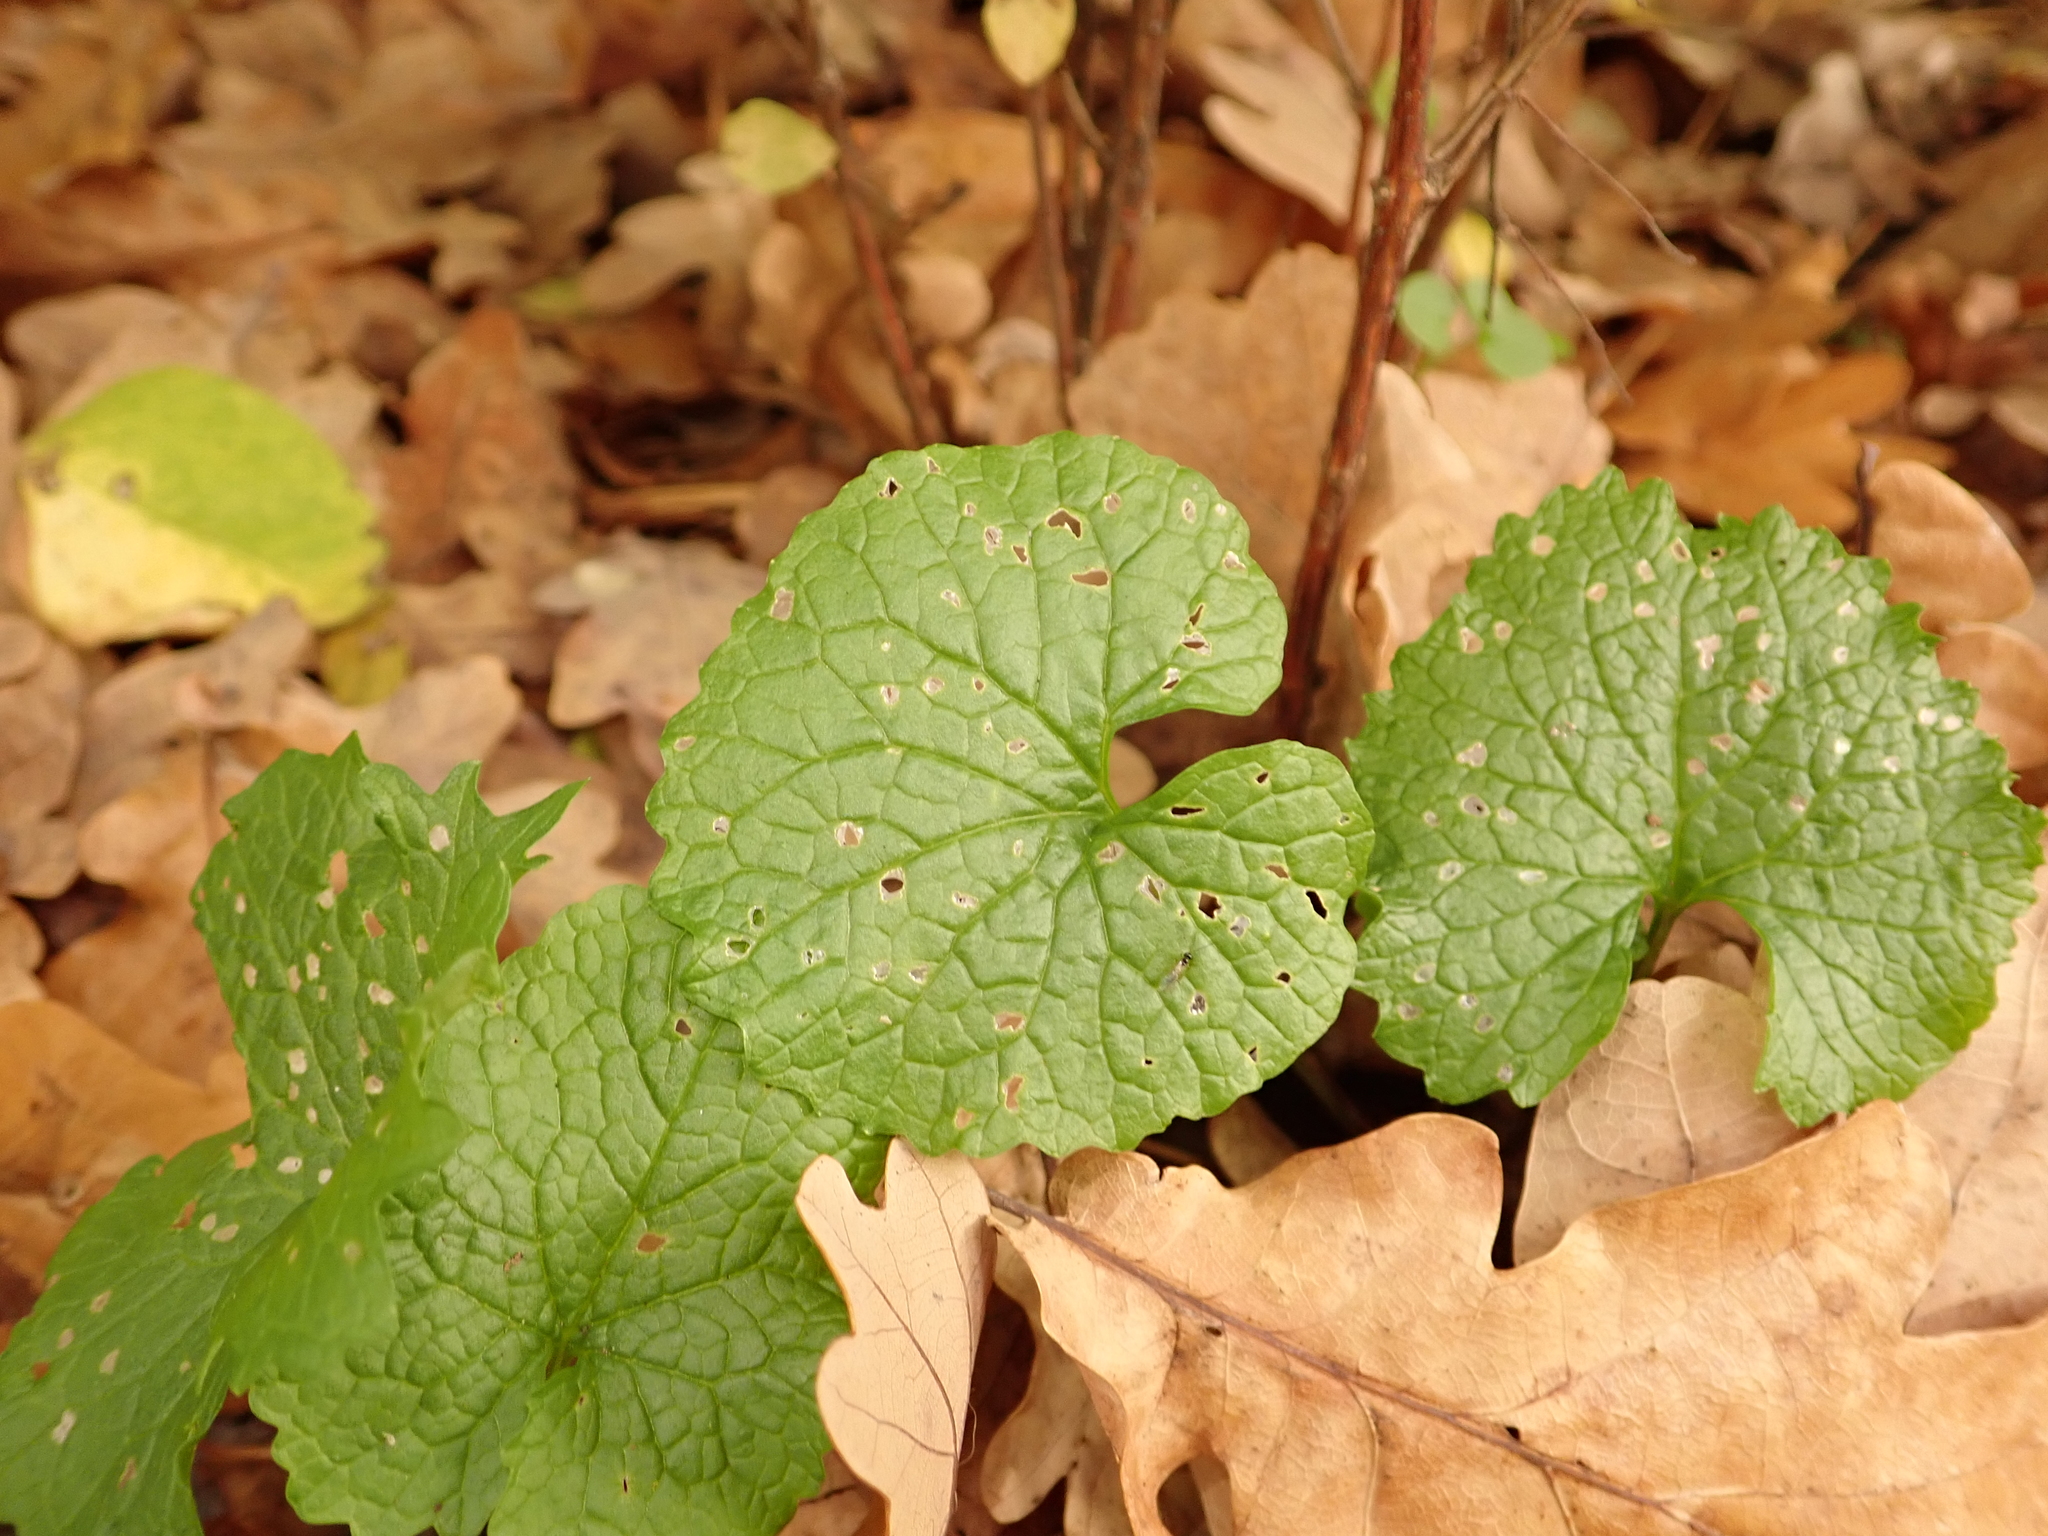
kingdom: Plantae
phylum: Tracheophyta
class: Magnoliopsida
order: Brassicales
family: Brassicaceae
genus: Alliaria
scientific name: Alliaria petiolata
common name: Garlic mustard
